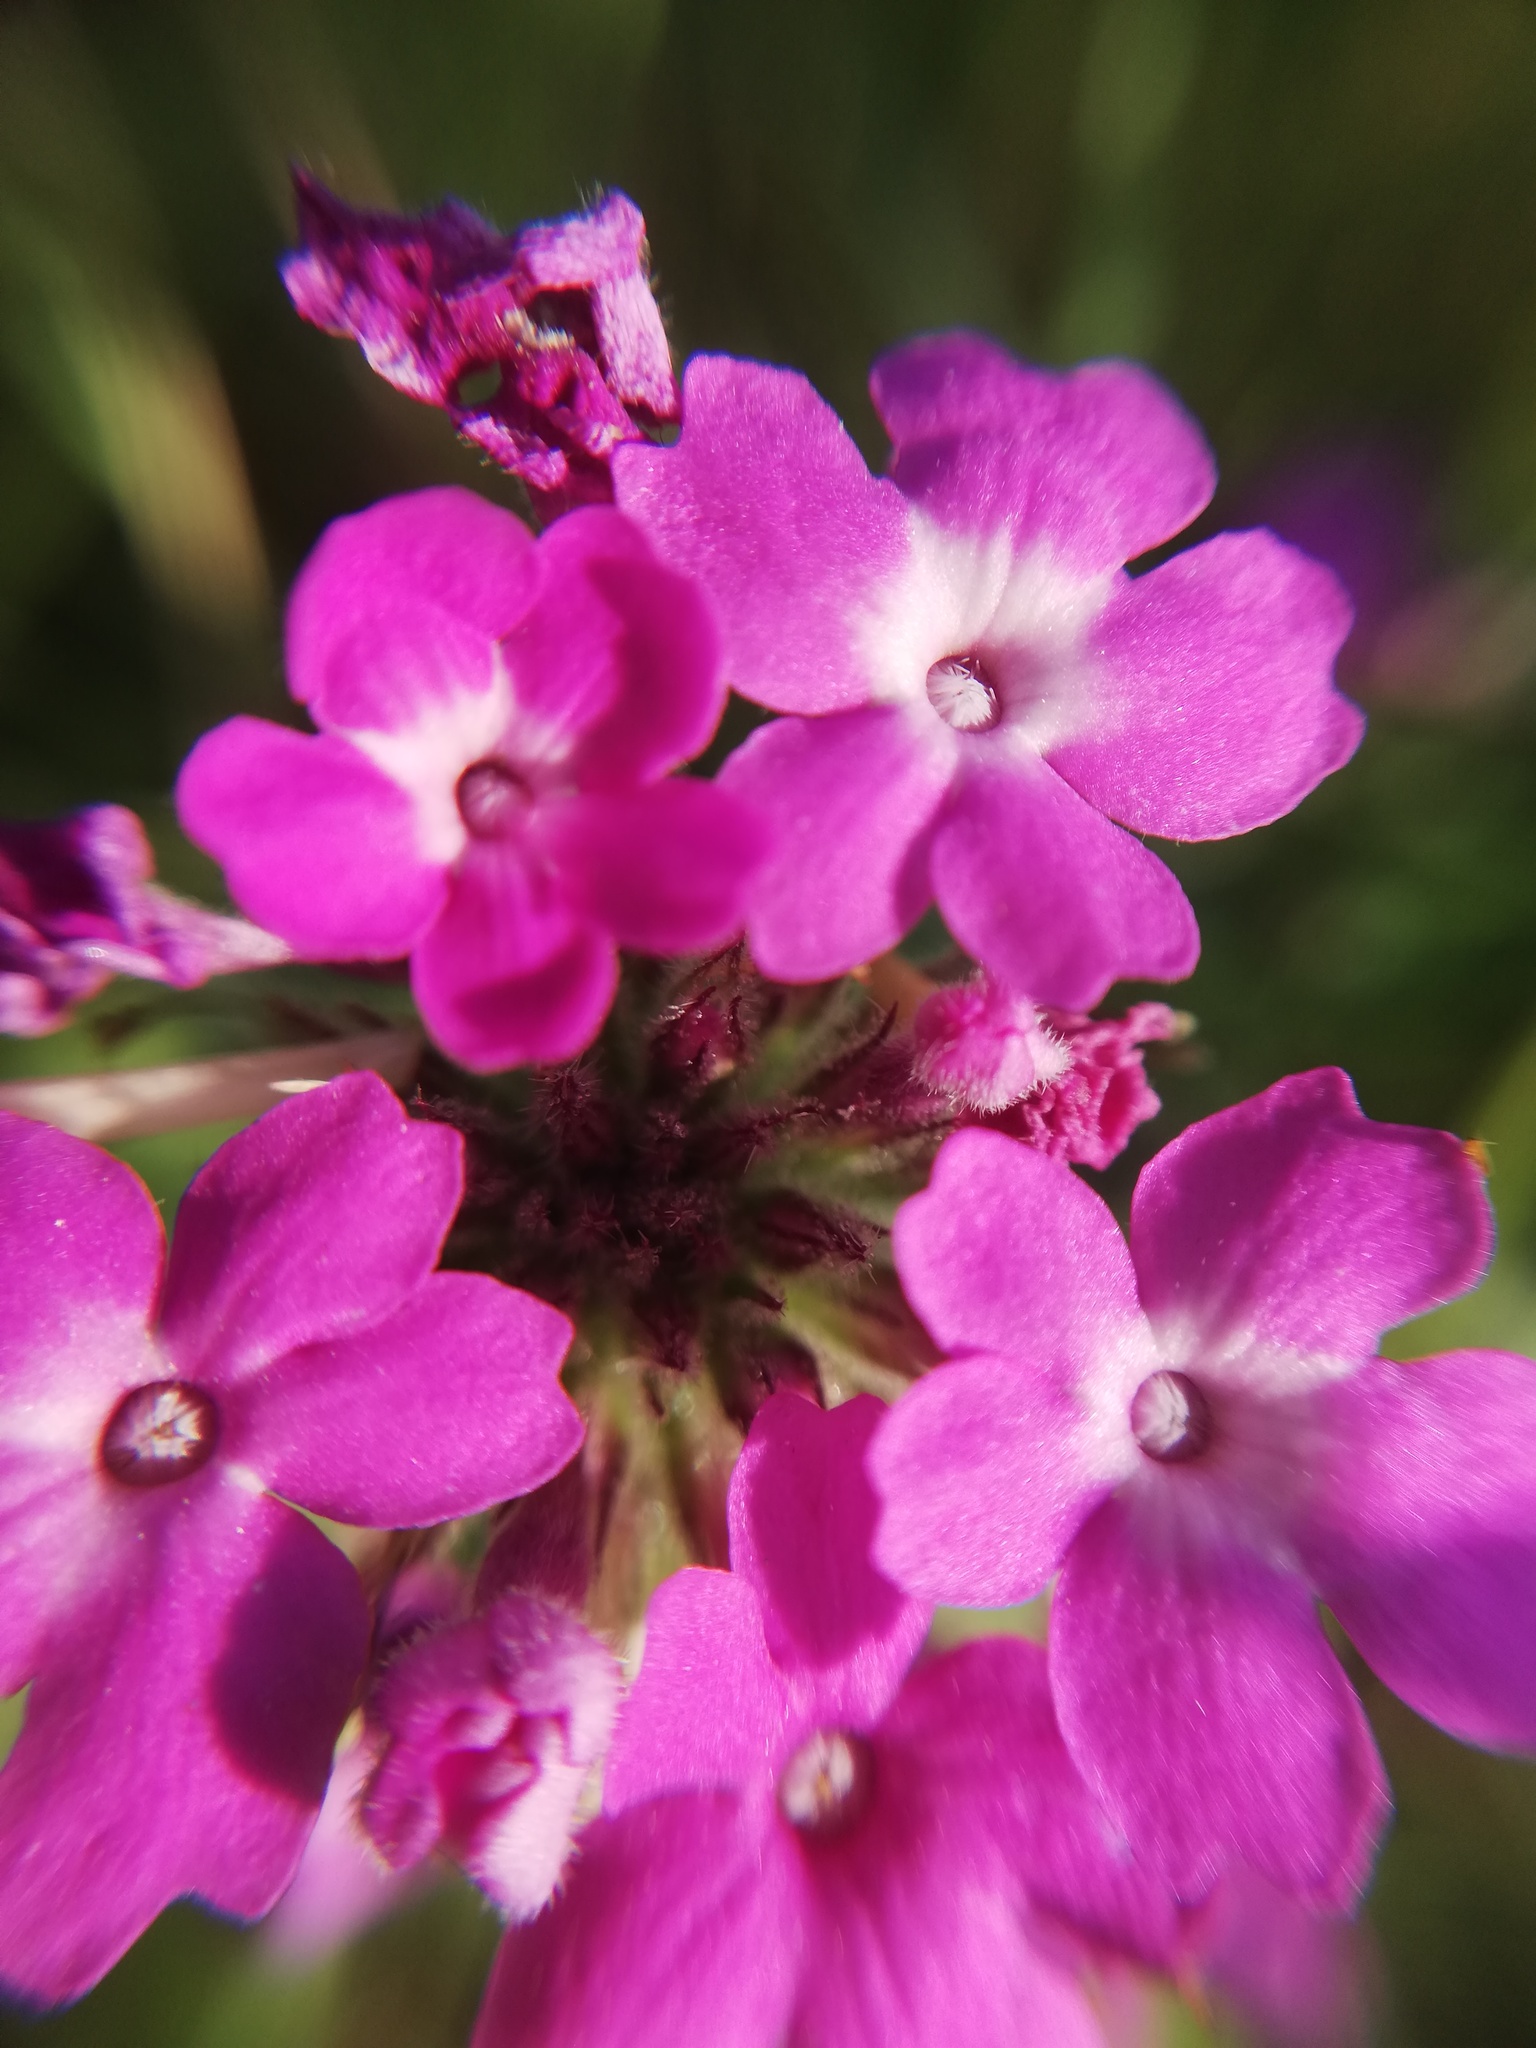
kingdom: Plantae
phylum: Tracheophyta
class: Magnoliopsida
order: Lamiales
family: Verbenaceae
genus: Verbena
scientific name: Verbena canadensis
